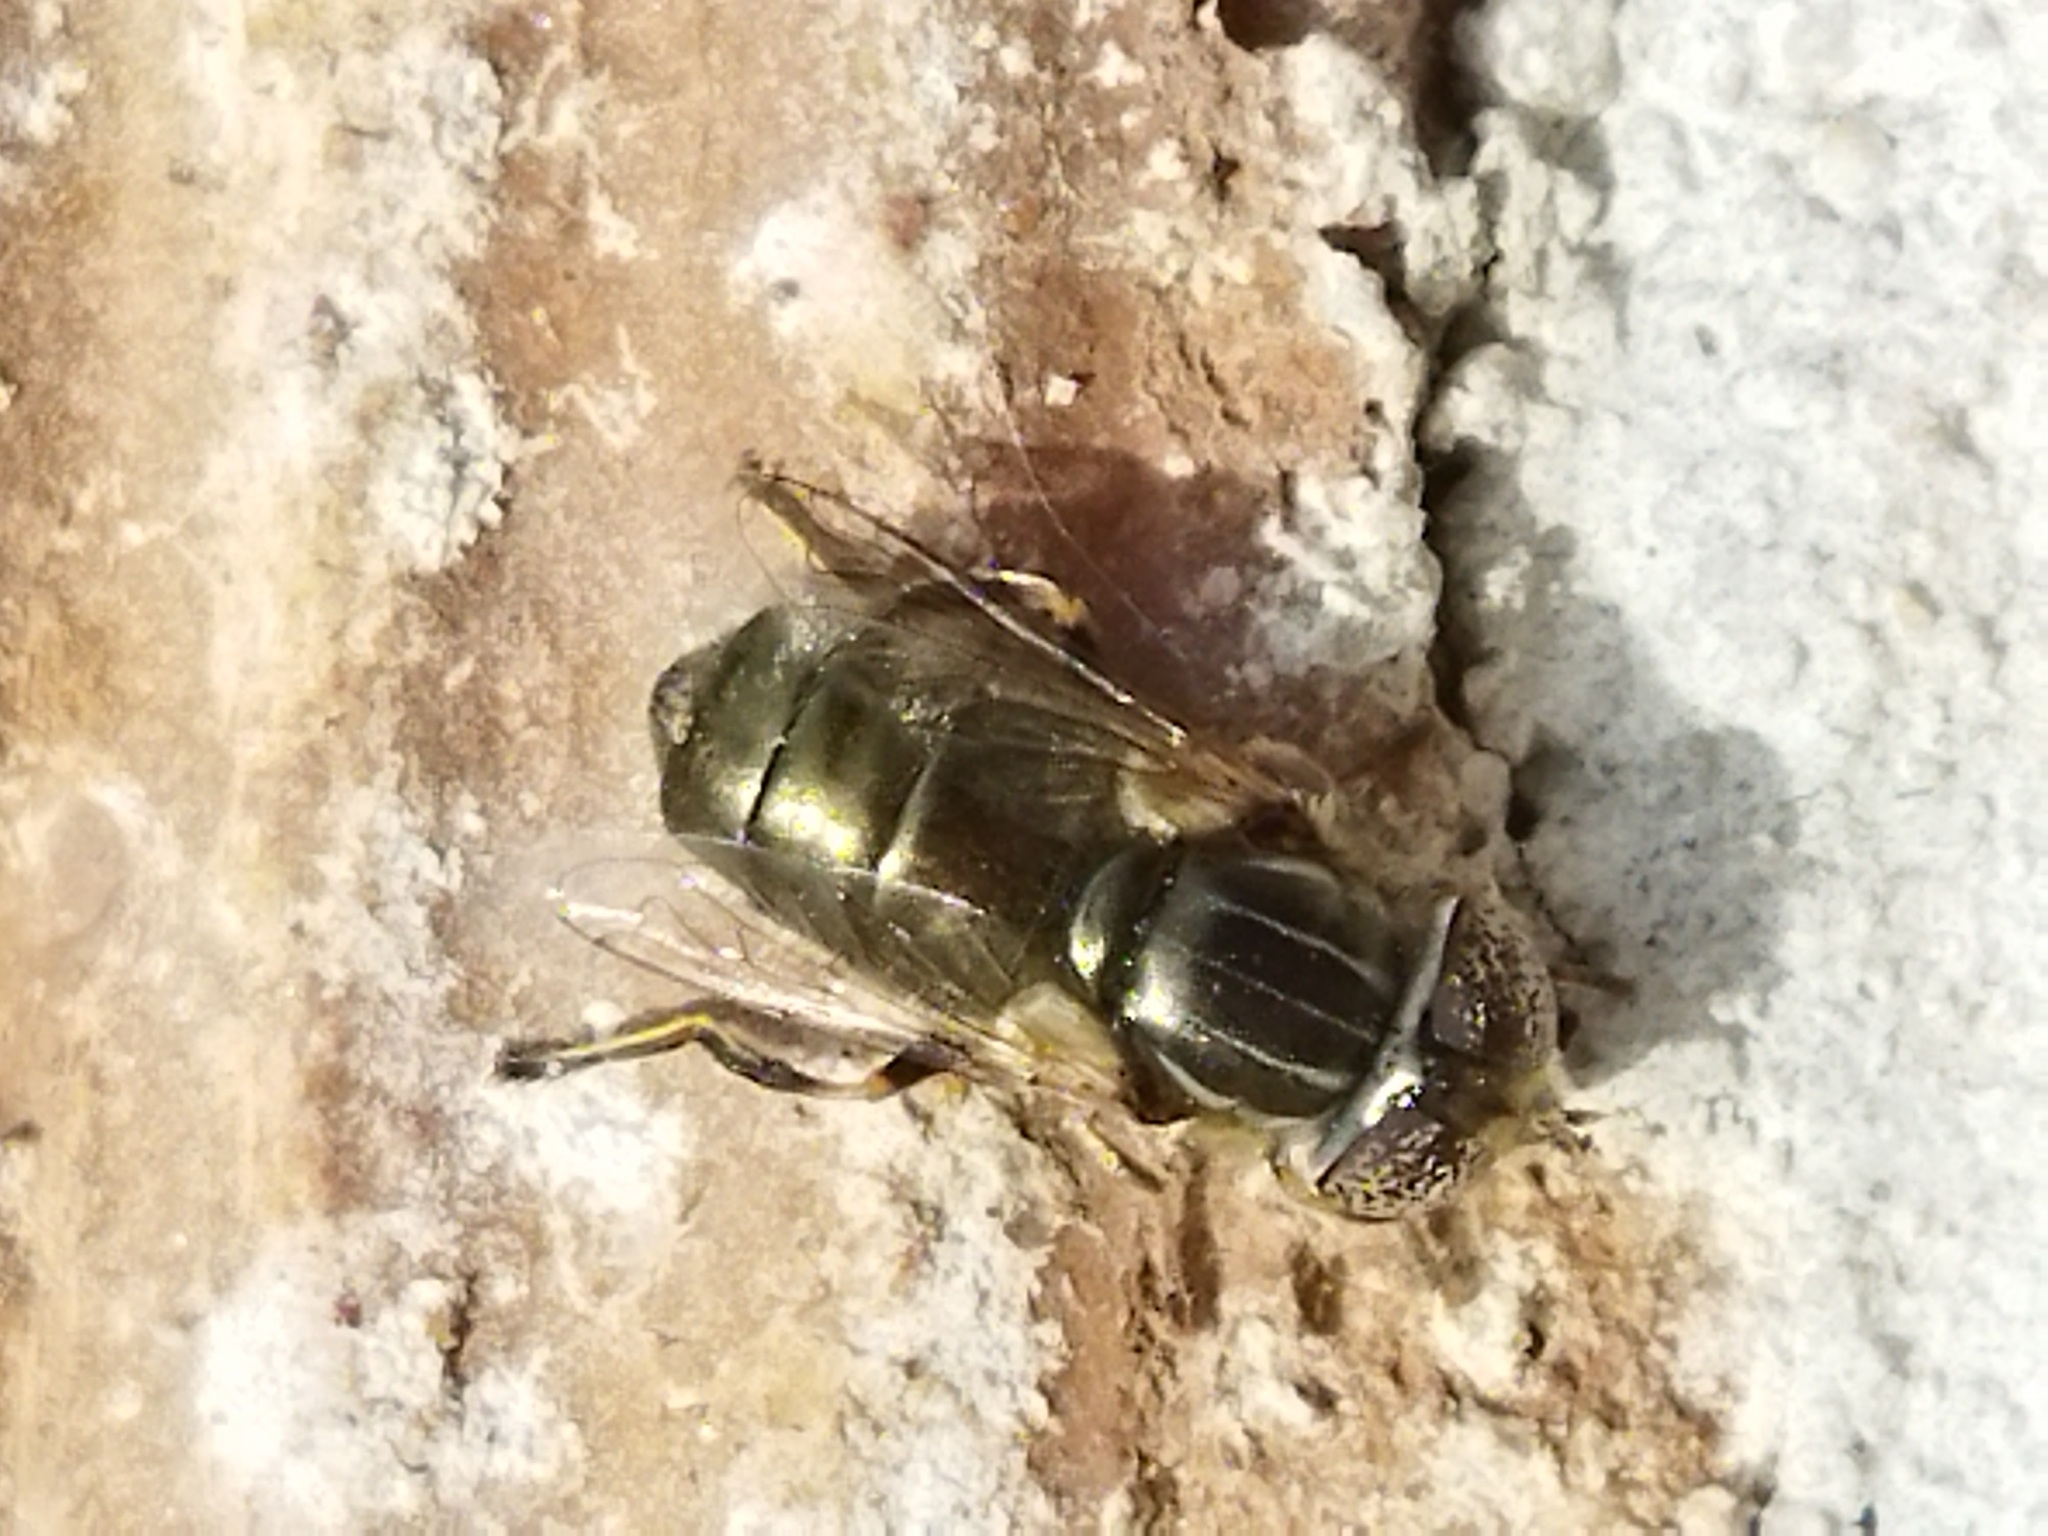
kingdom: Animalia
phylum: Arthropoda
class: Insecta
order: Diptera
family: Syrphidae
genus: Eristalinus
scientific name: Eristalinus aeneus
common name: Syrphid fly
